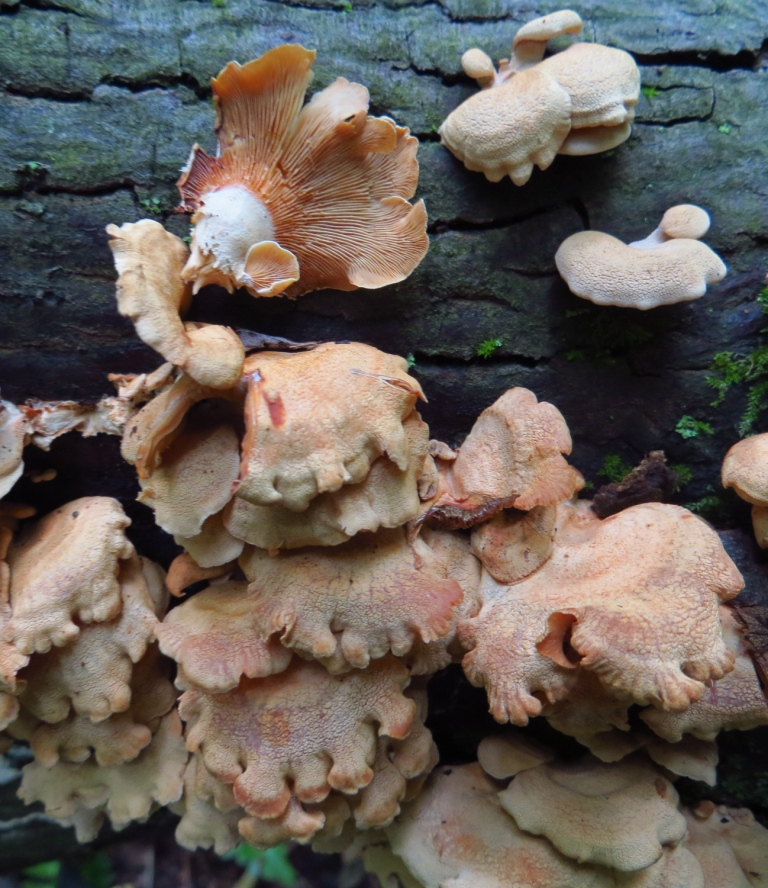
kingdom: Fungi
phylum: Basidiomycota
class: Agaricomycetes
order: Agaricales
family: Mycenaceae
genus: Panellus
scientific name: Panellus stipticus
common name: Bitter oysterling
